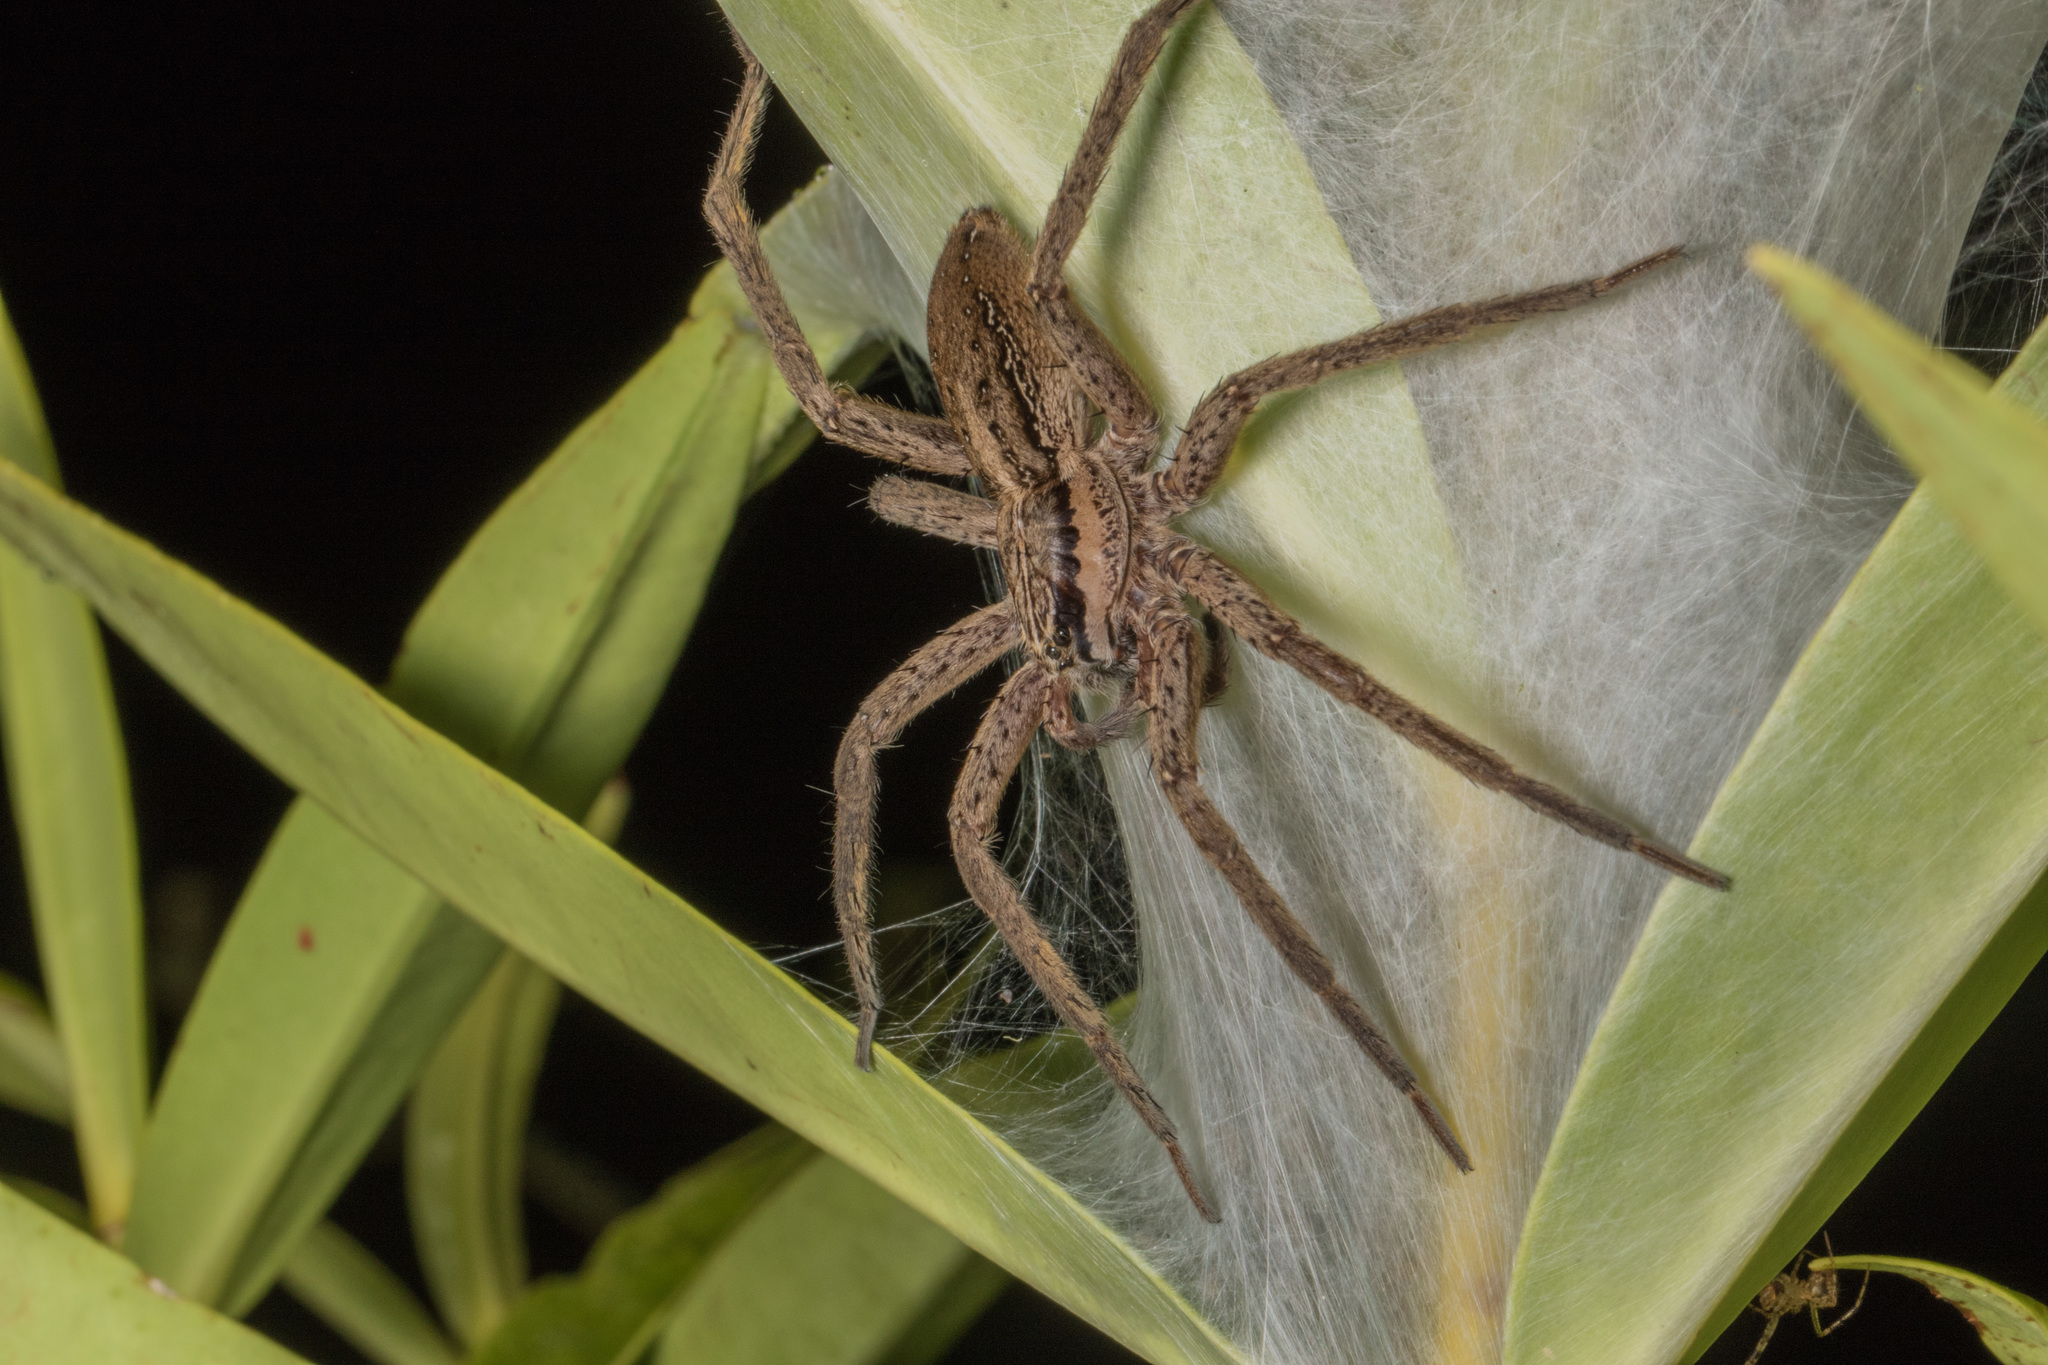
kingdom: Animalia
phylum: Arthropoda
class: Arachnida
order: Araneae
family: Pisauridae
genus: Dolomedes
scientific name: Dolomedes minor
